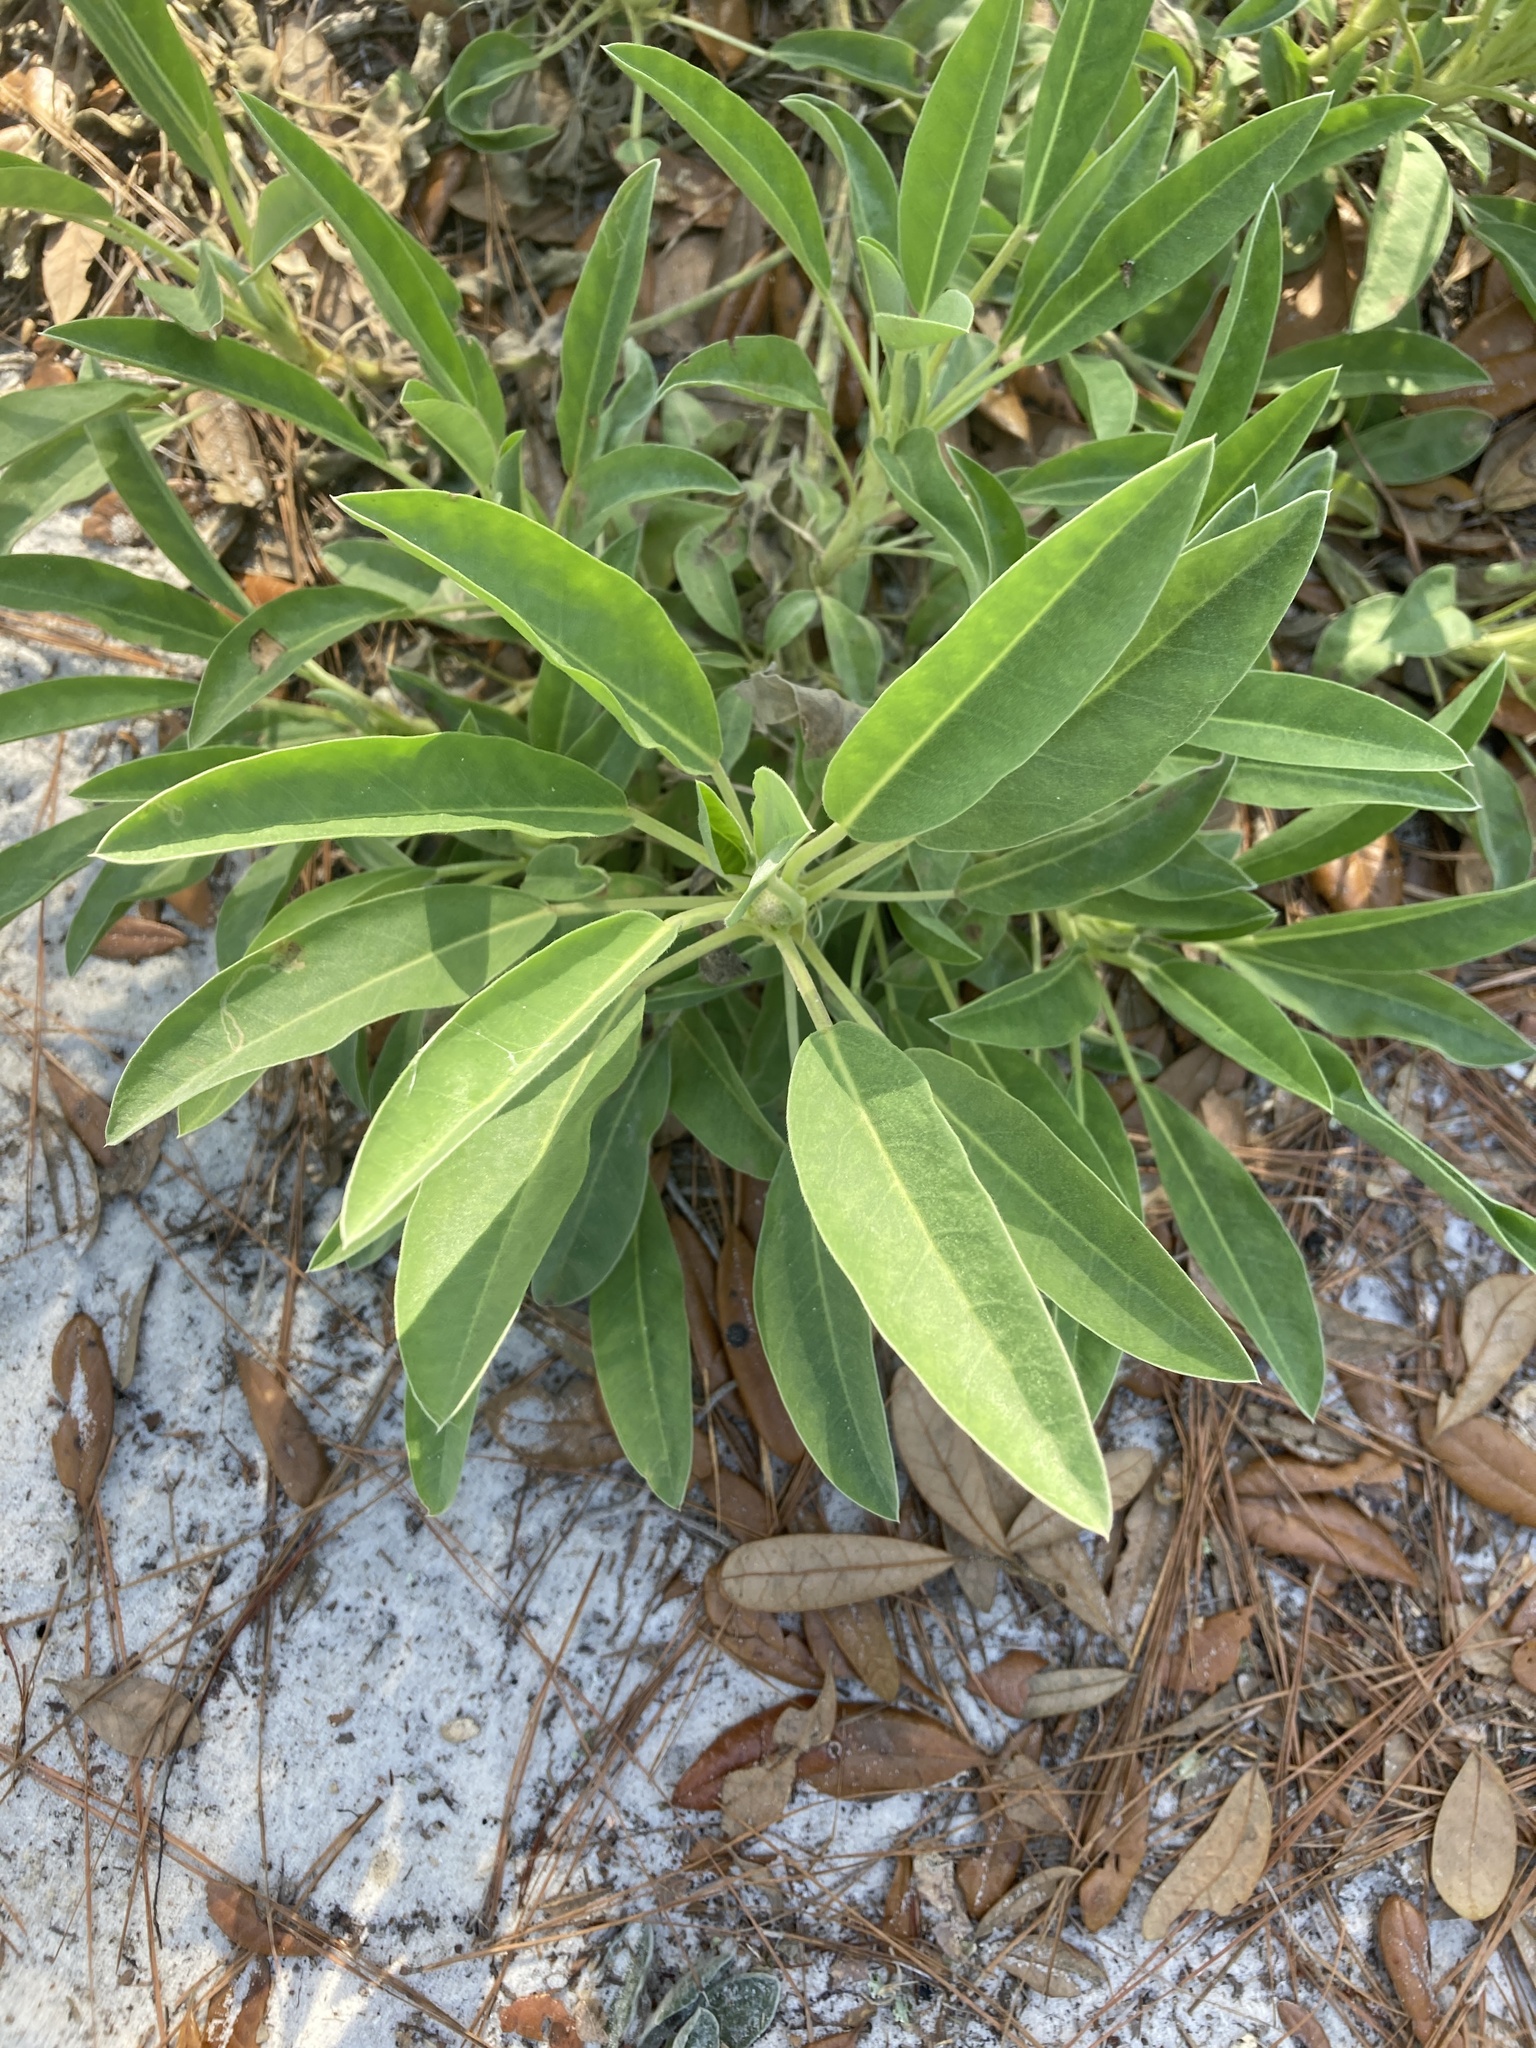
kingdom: Plantae
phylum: Tracheophyta
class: Magnoliopsida
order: Fabales
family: Fabaceae
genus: Lupinus
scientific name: Lupinus
